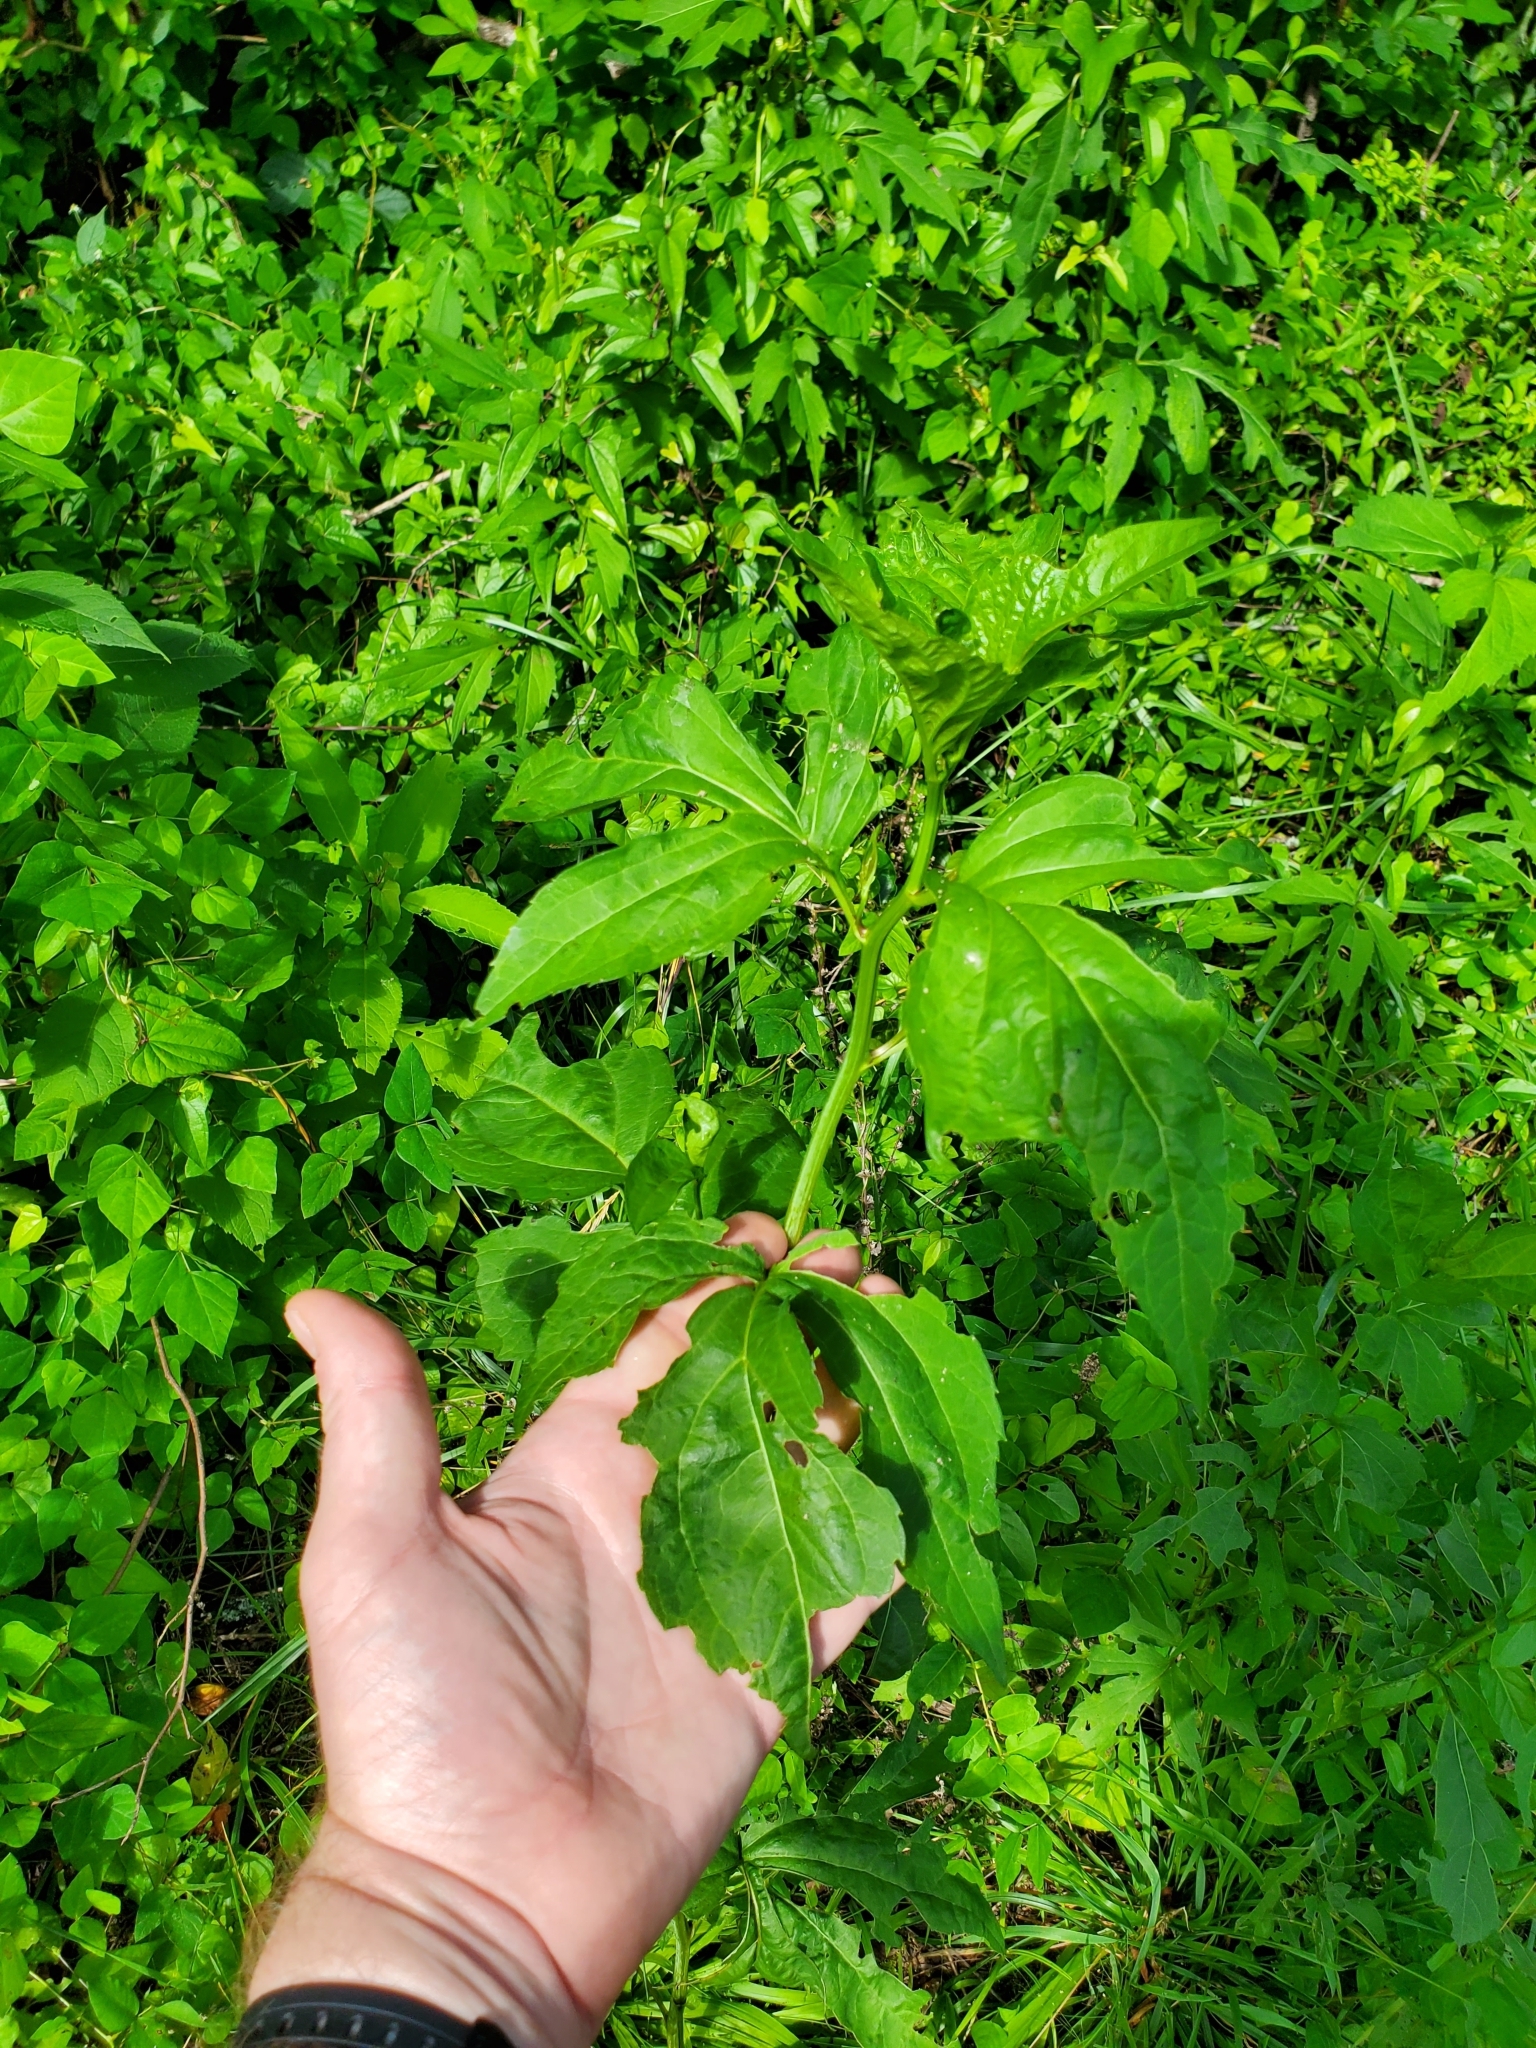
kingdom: Plantae
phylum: Tracheophyta
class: Magnoliopsida
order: Asterales
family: Asteraceae
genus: Rudbeckia
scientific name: Rudbeckia laciniata
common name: Coneflower
